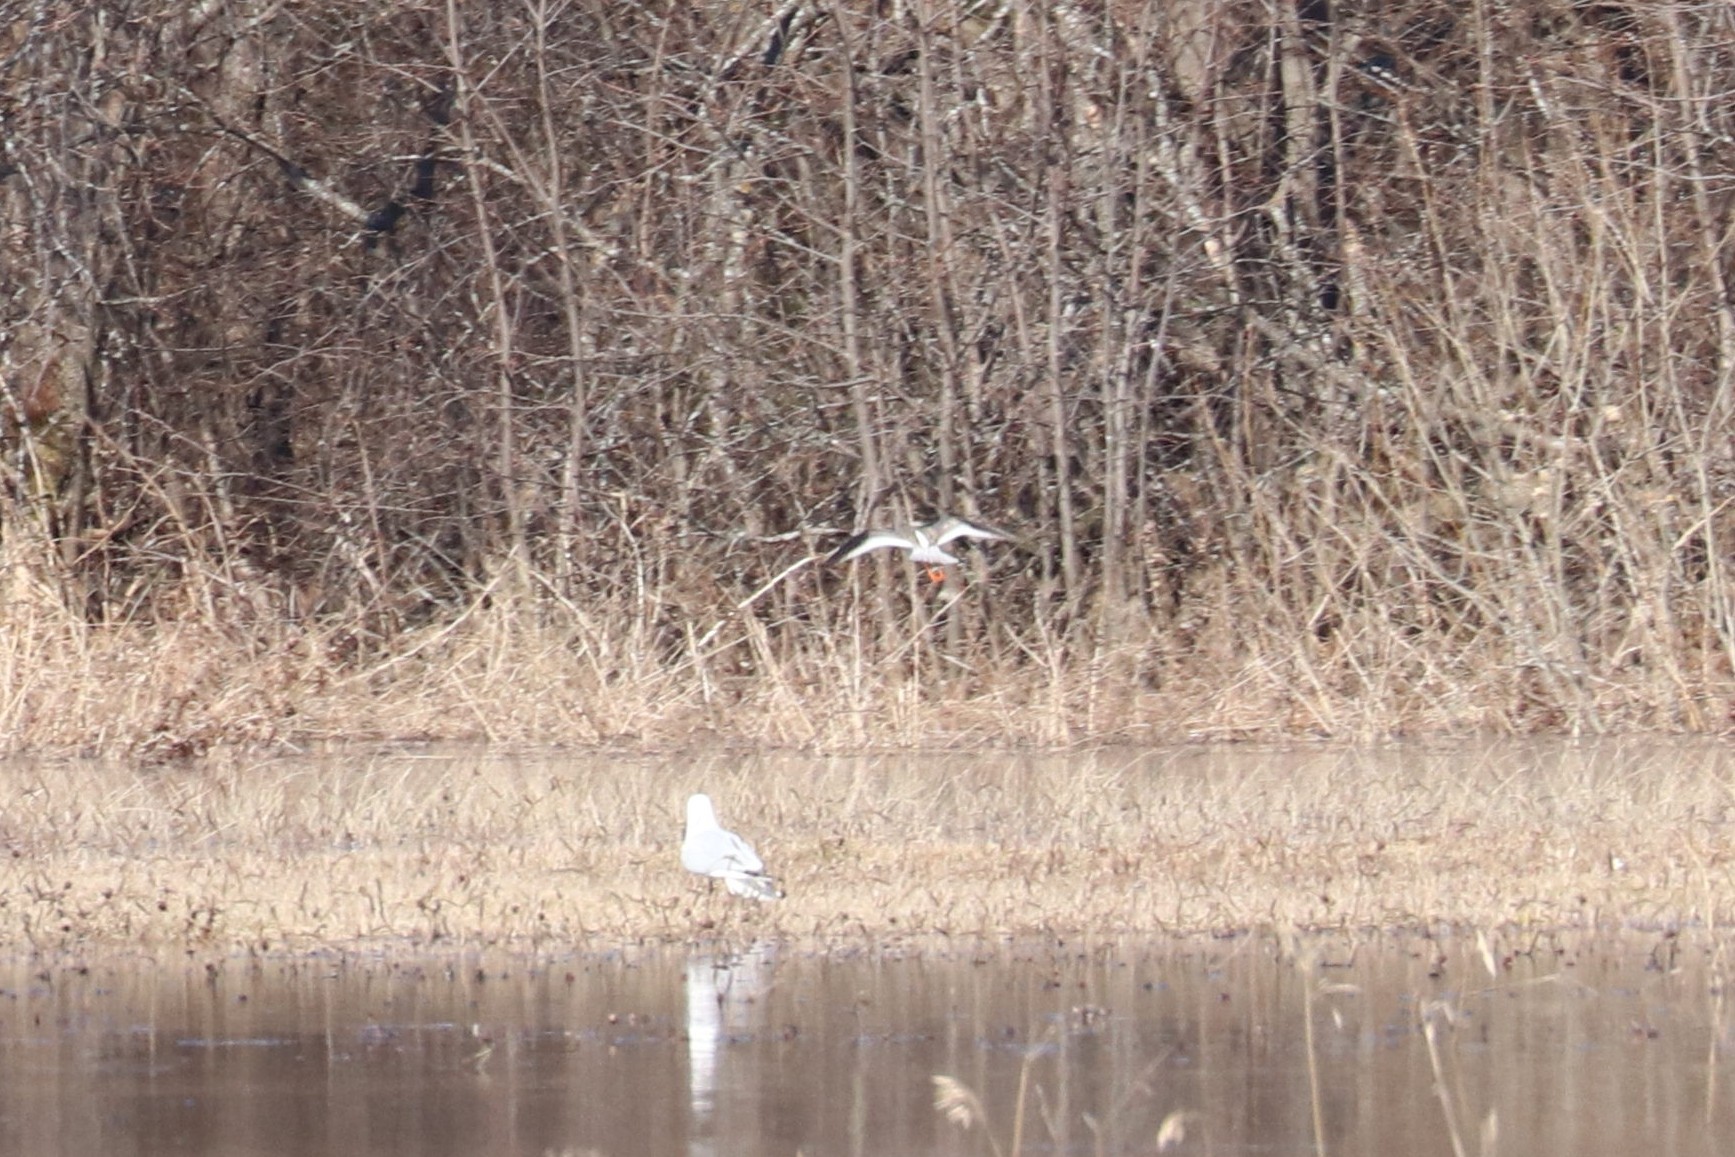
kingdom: Animalia
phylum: Chordata
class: Aves
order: Charadriiformes
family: Scolopacidae
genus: Tringa
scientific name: Tringa totanus
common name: Common redshank
